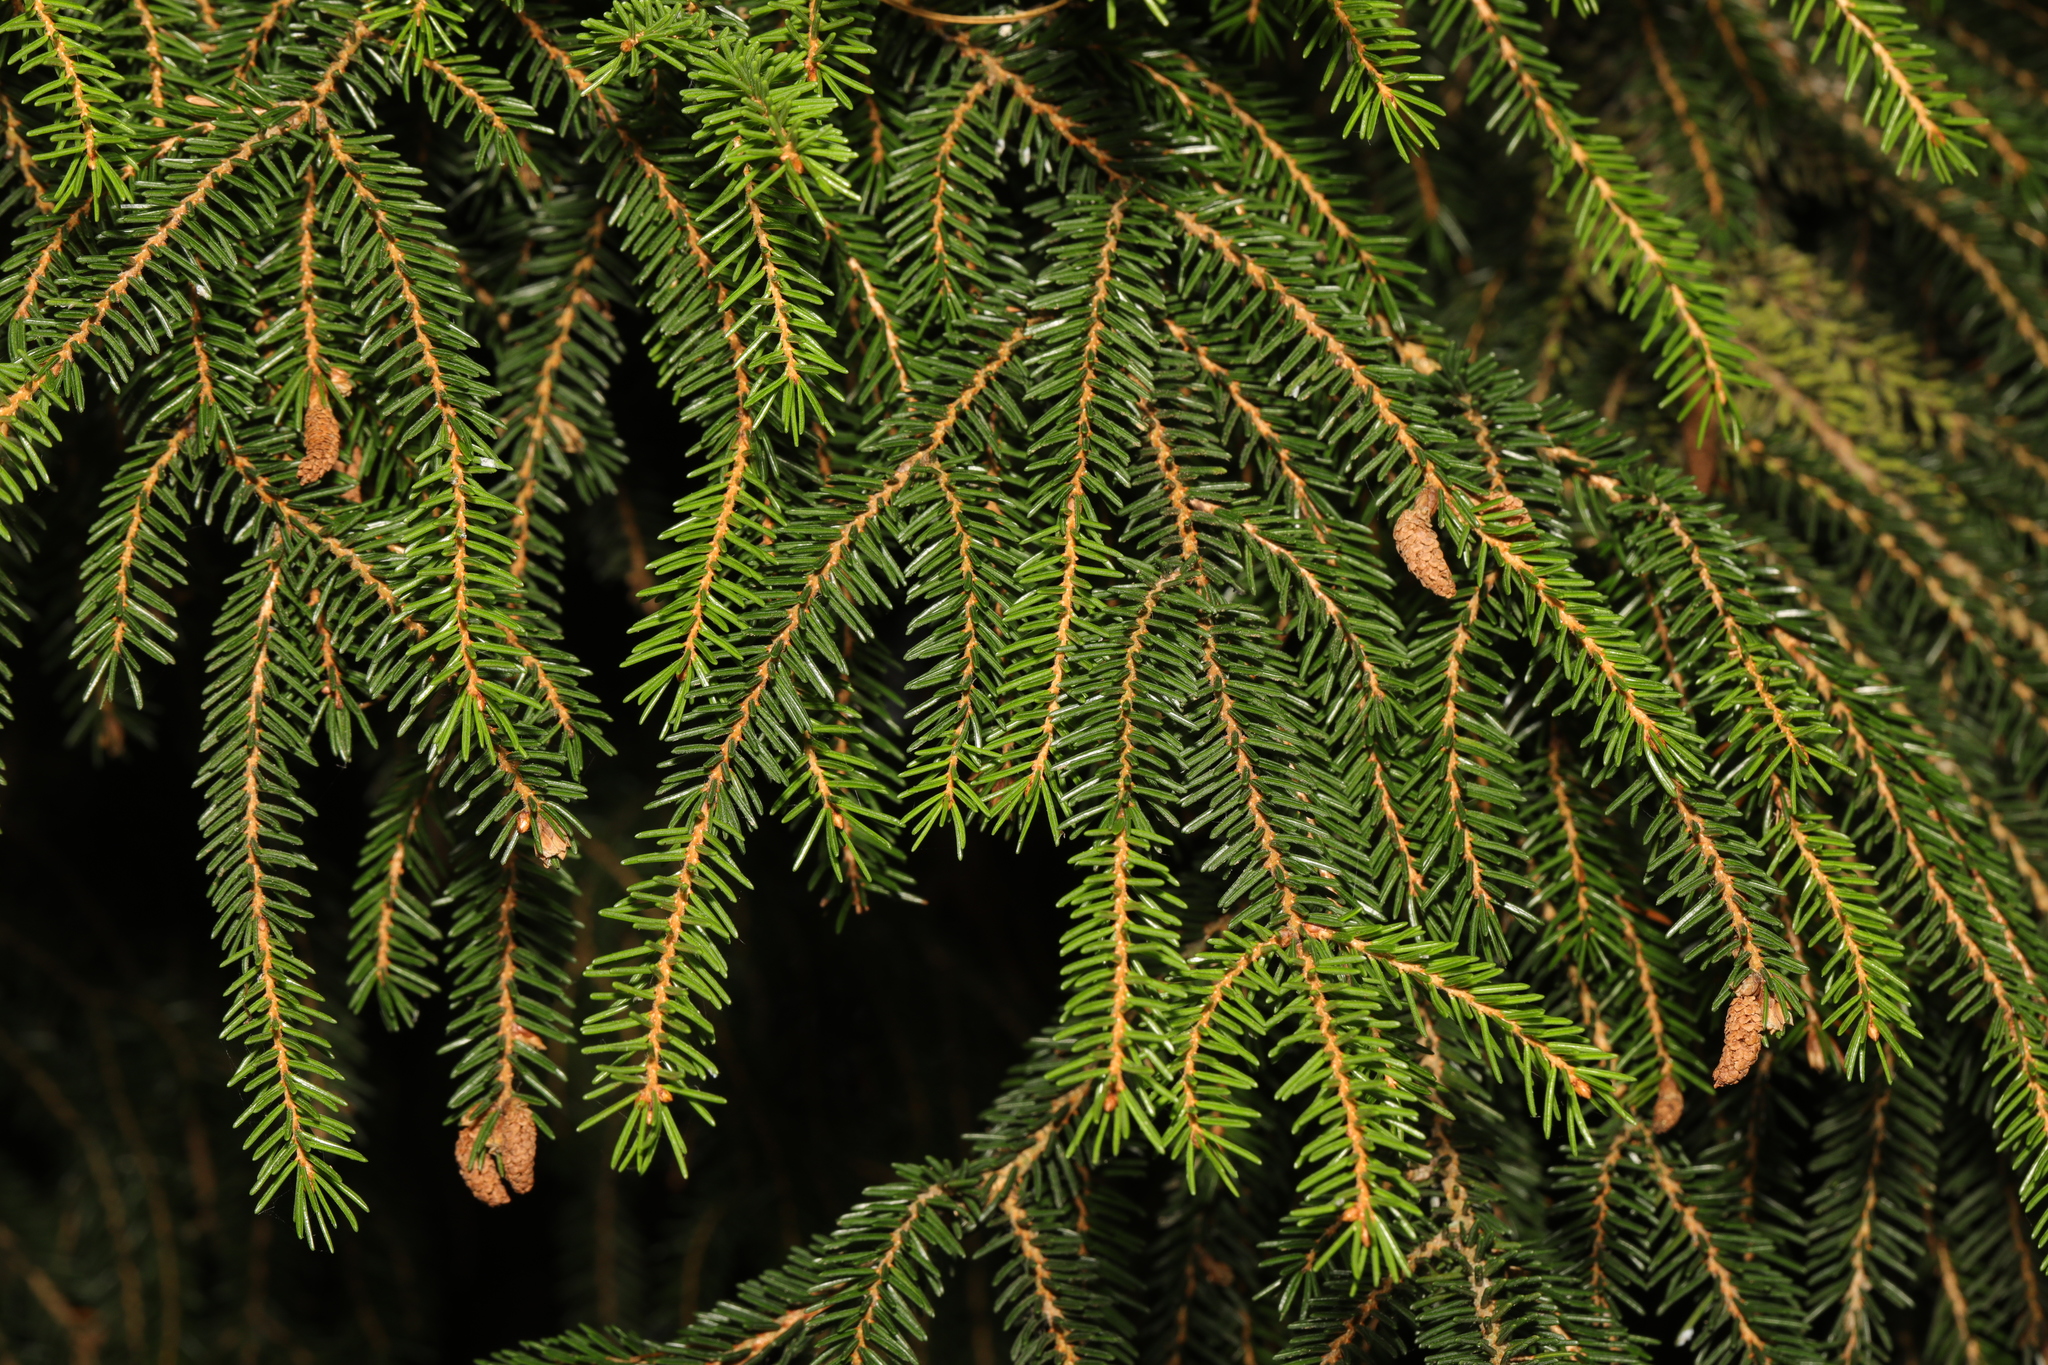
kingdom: Plantae
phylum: Tracheophyta
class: Pinopsida
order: Pinales
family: Pinaceae
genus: Picea
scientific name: Picea abies
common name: Norway spruce
